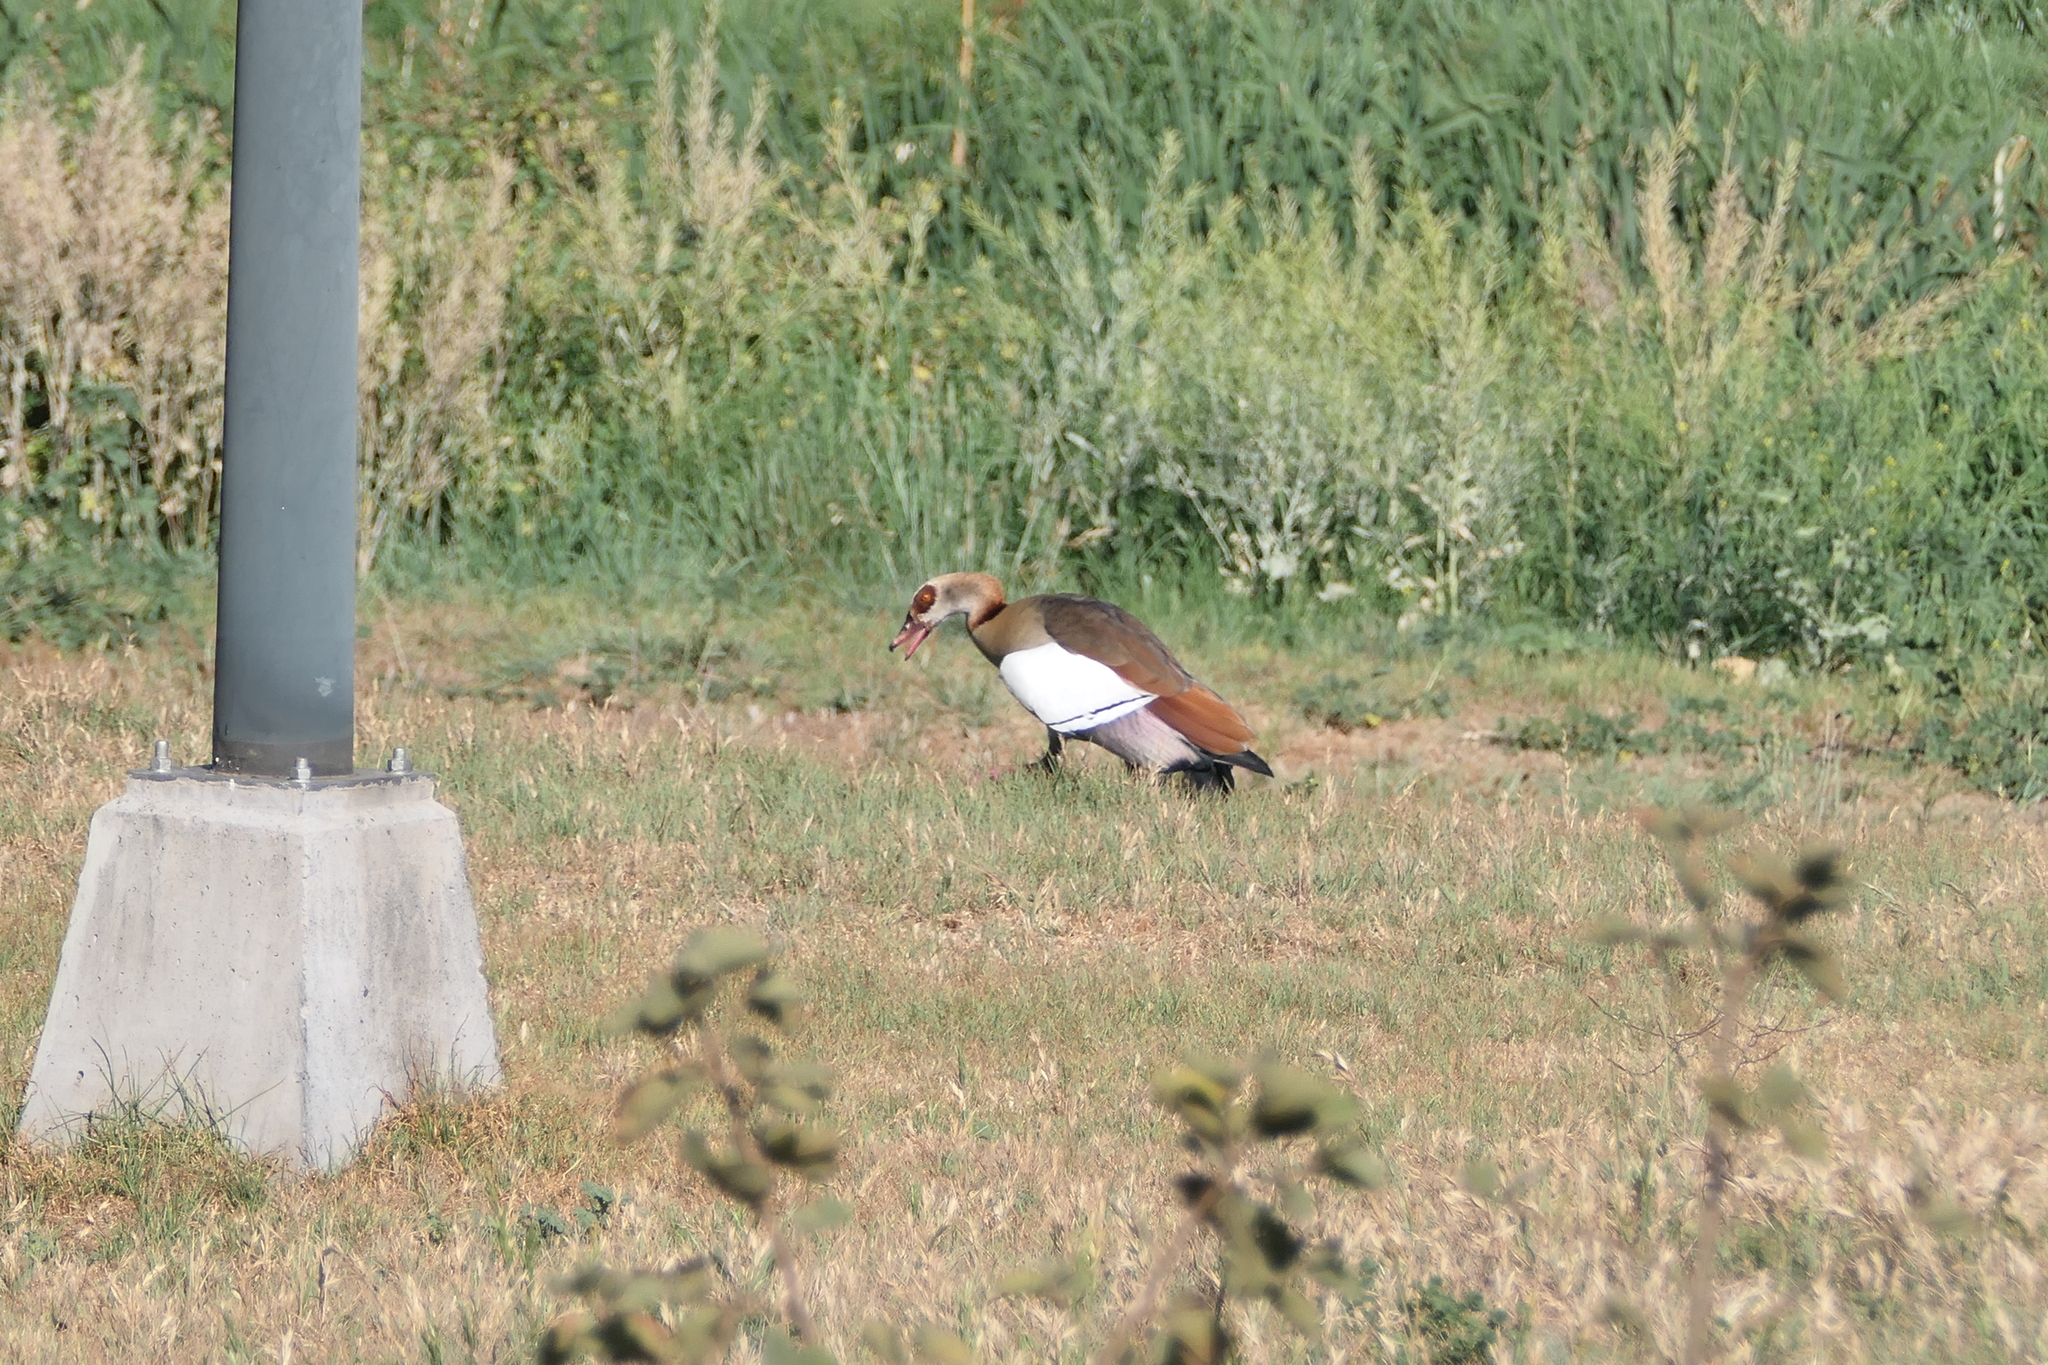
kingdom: Animalia
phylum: Chordata
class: Aves
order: Anseriformes
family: Anatidae
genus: Alopochen
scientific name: Alopochen aegyptiaca
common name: Egyptian goose
